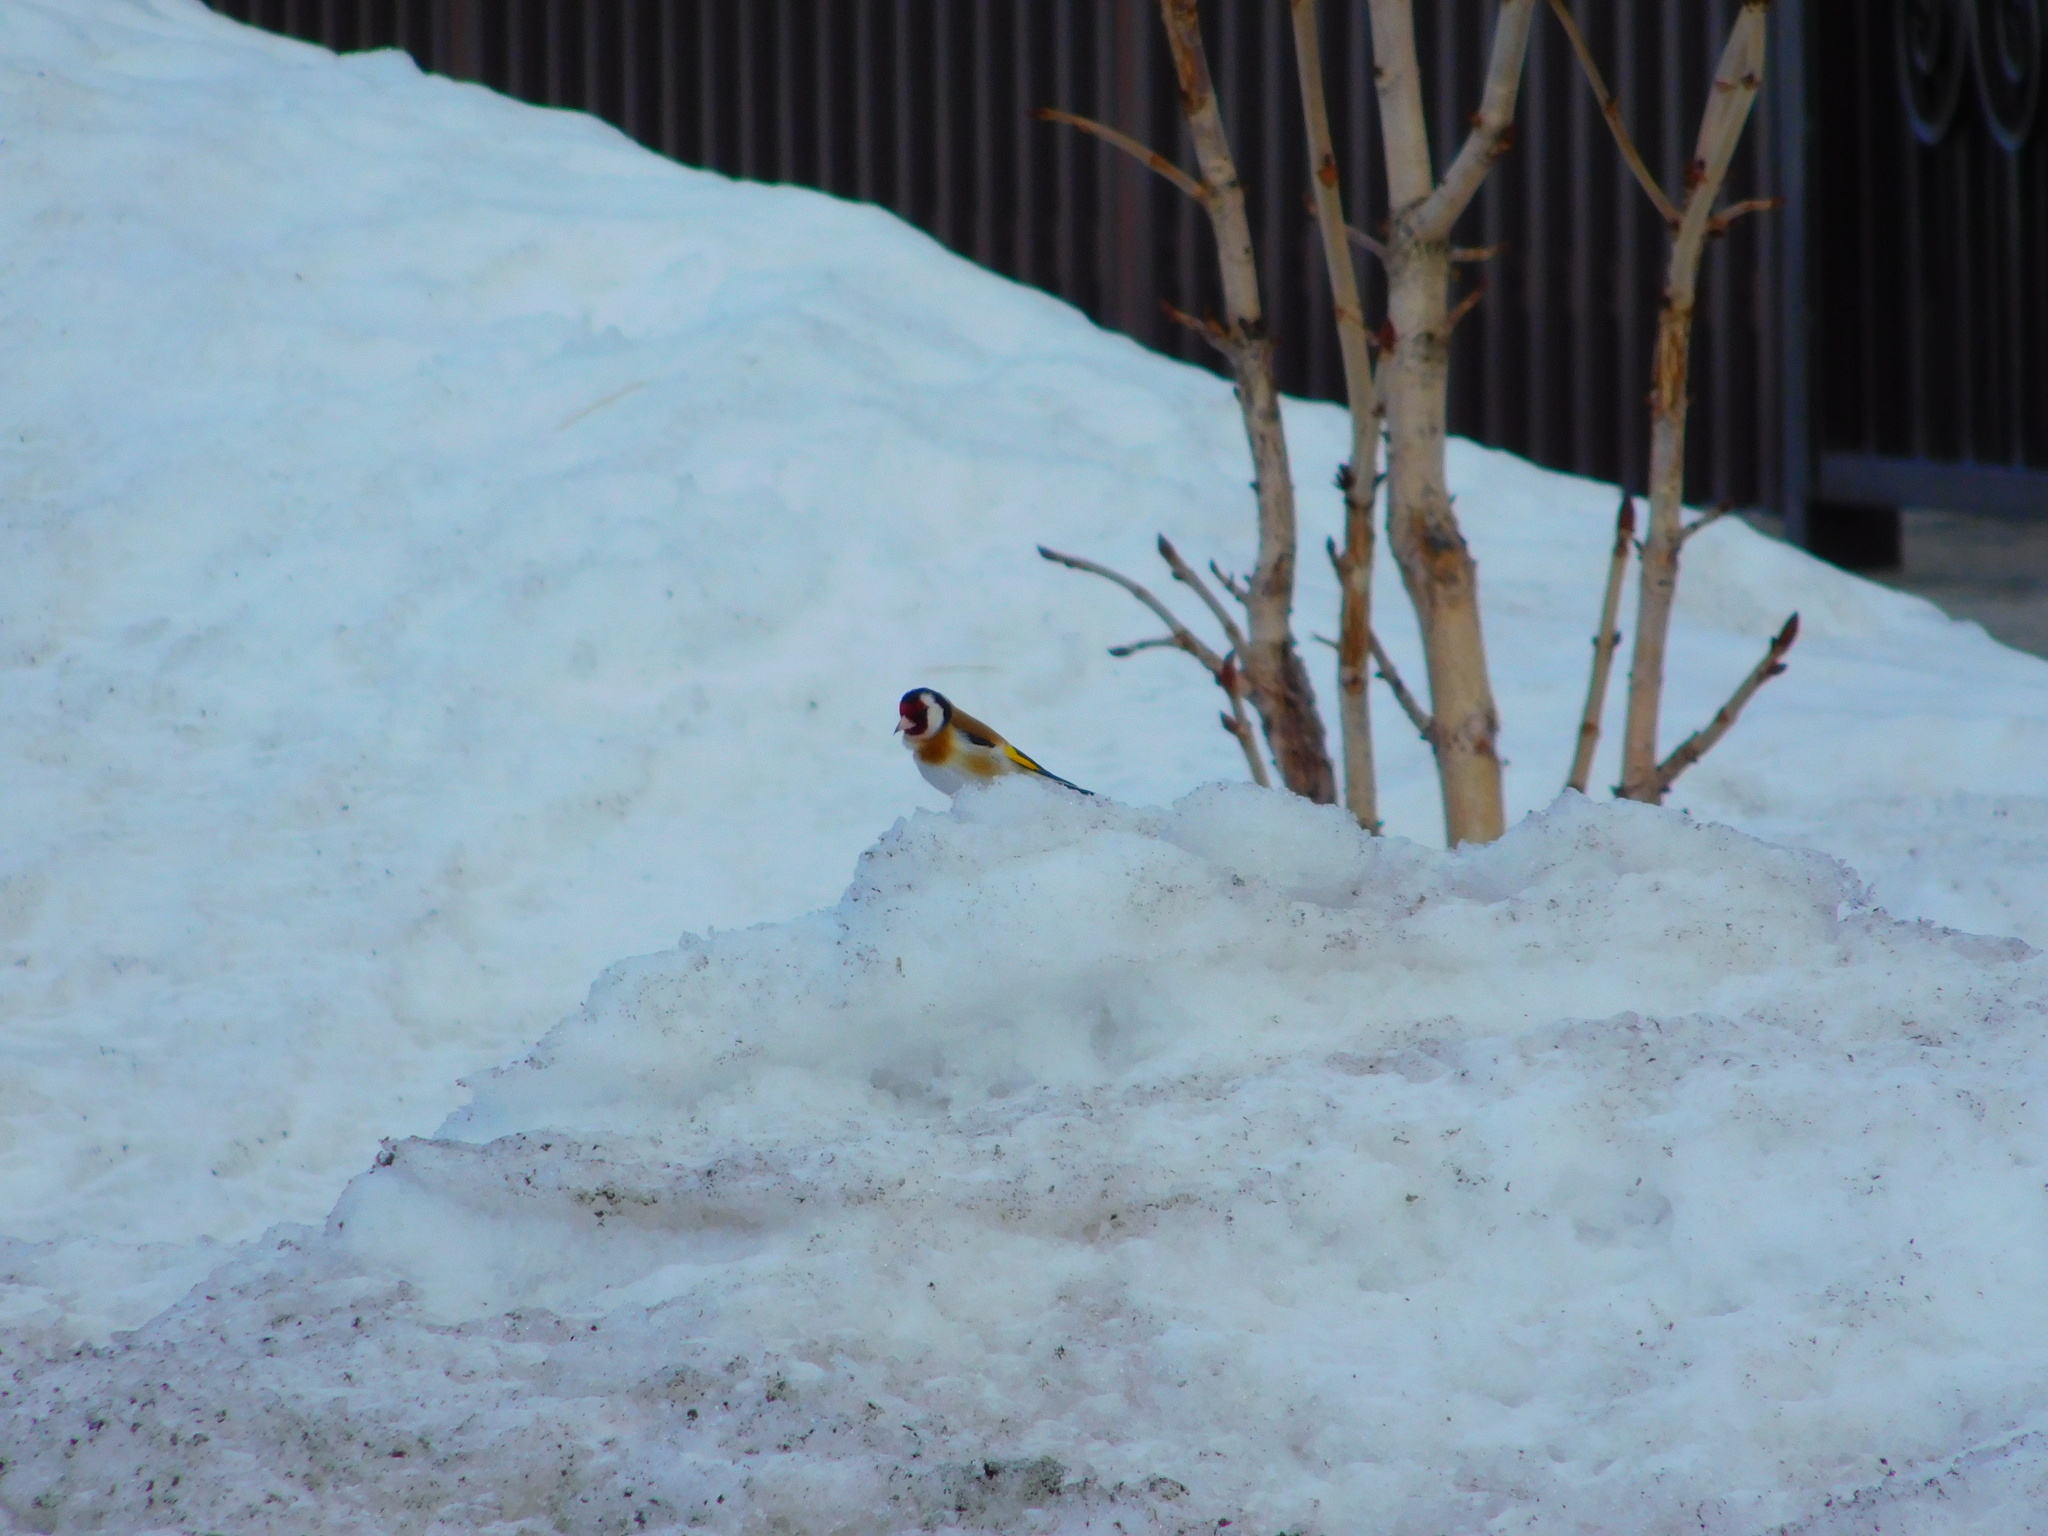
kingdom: Animalia
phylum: Chordata
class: Aves
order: Passeriformes
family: Fringillidae
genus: Carduelis
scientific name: Carduelis carduelis
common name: European goldfinch
